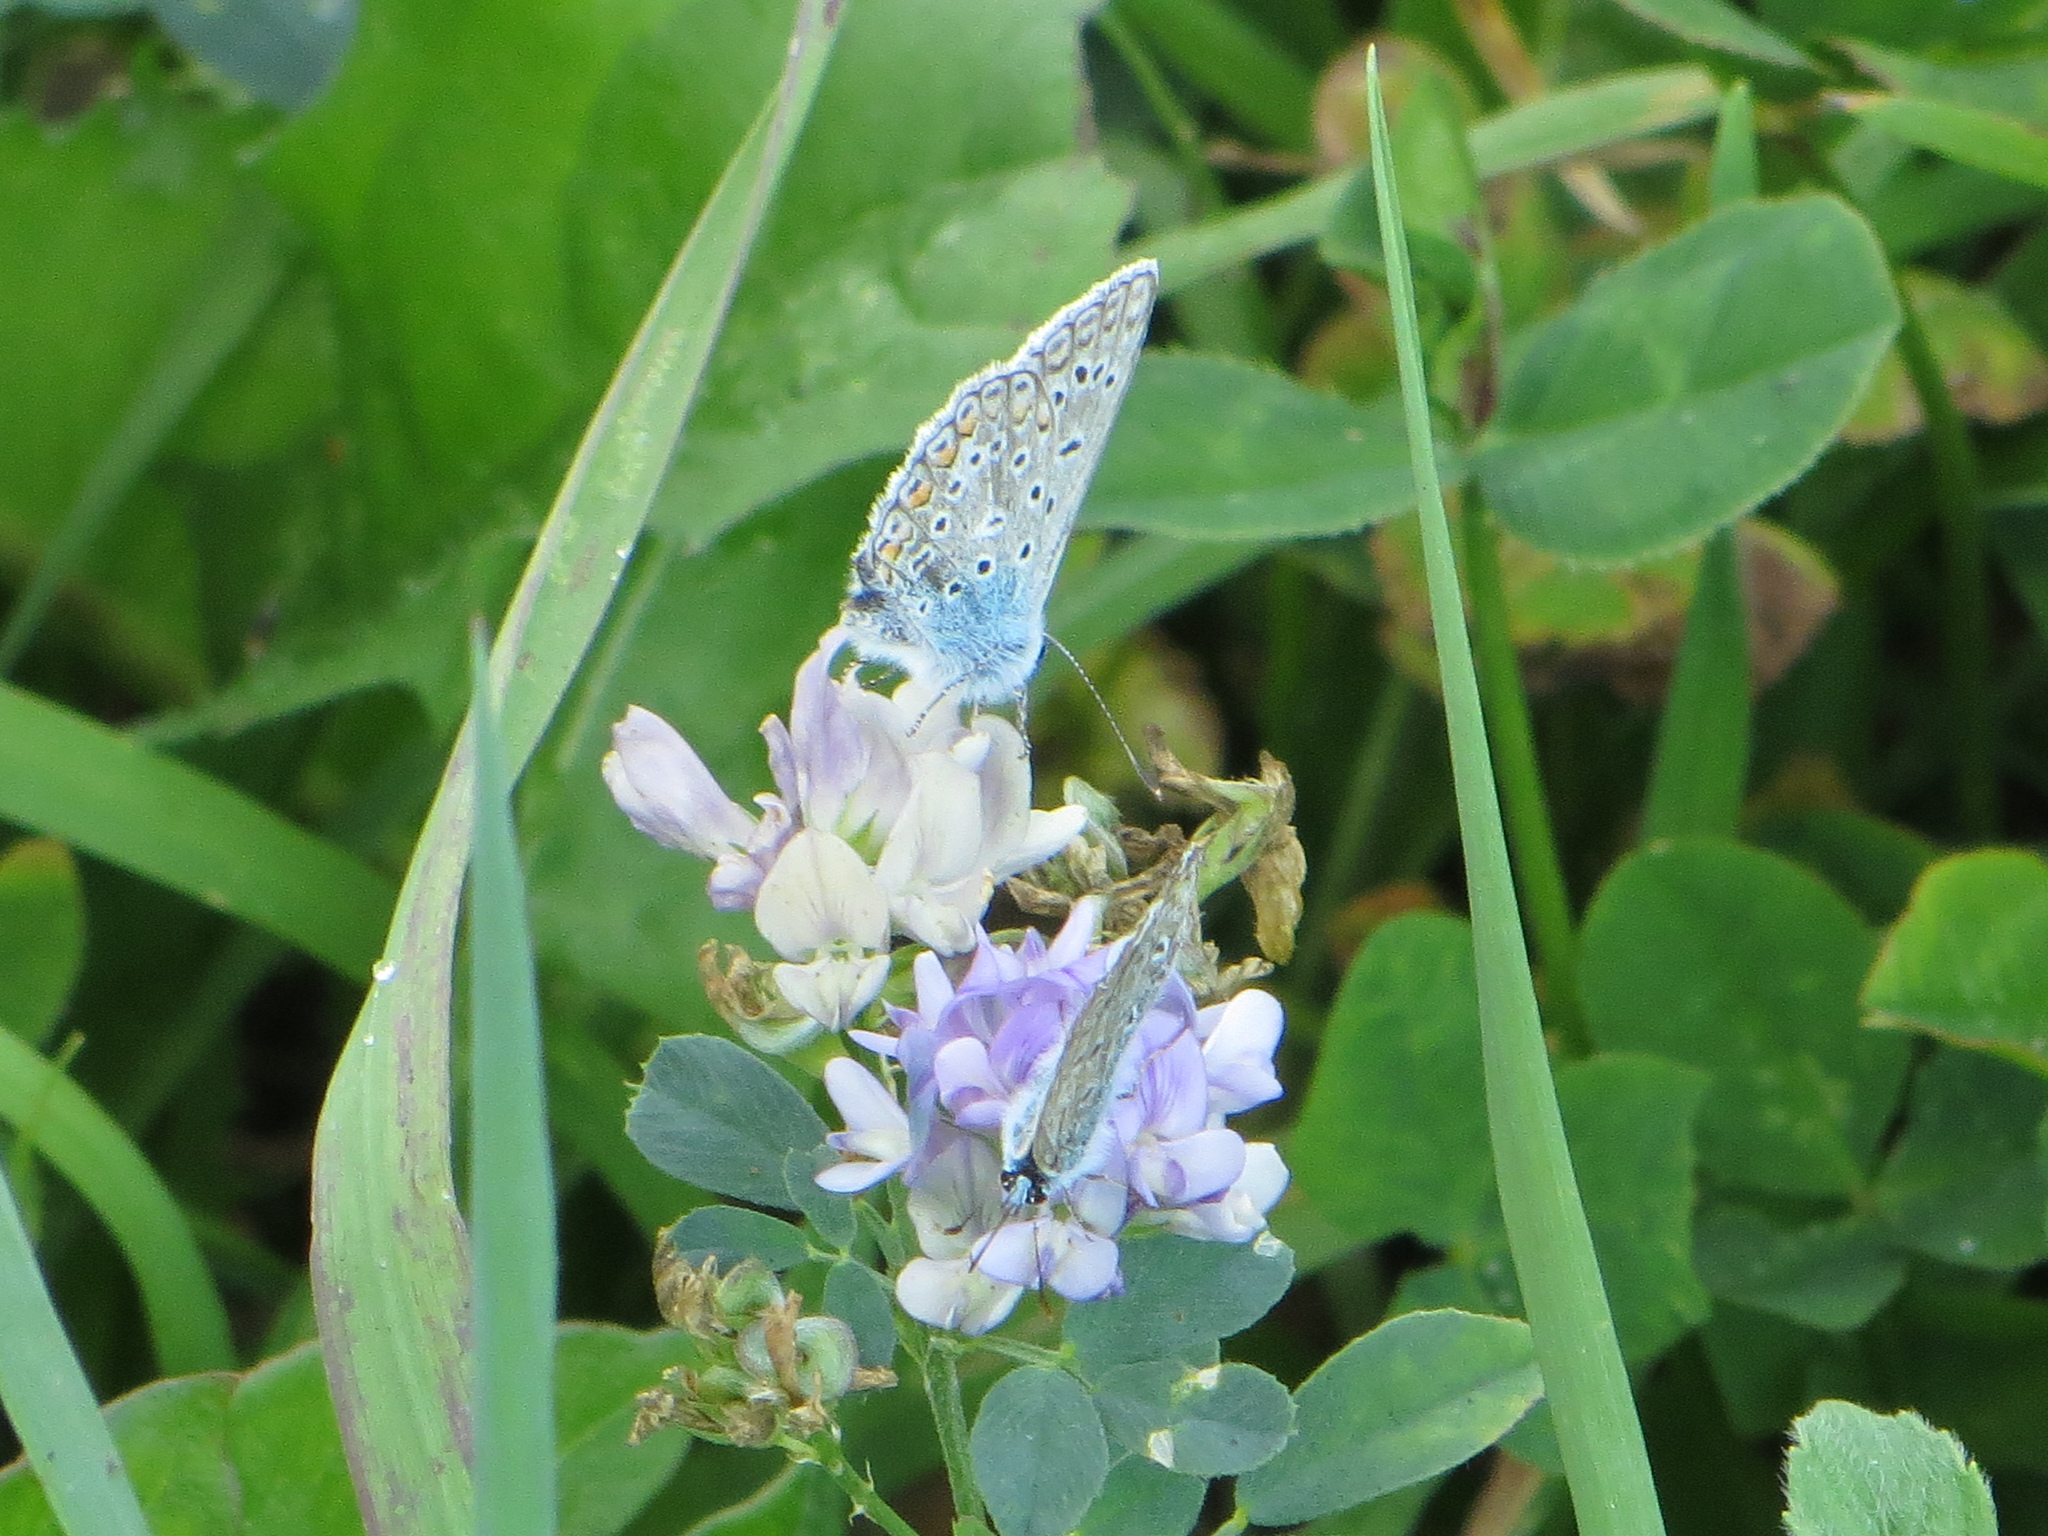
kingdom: Animalia
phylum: Arthropoda
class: Insecta
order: Lepidoptera
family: Lycaenidae
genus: Polyommatus
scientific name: Polyommatus icarus
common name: Common blue
